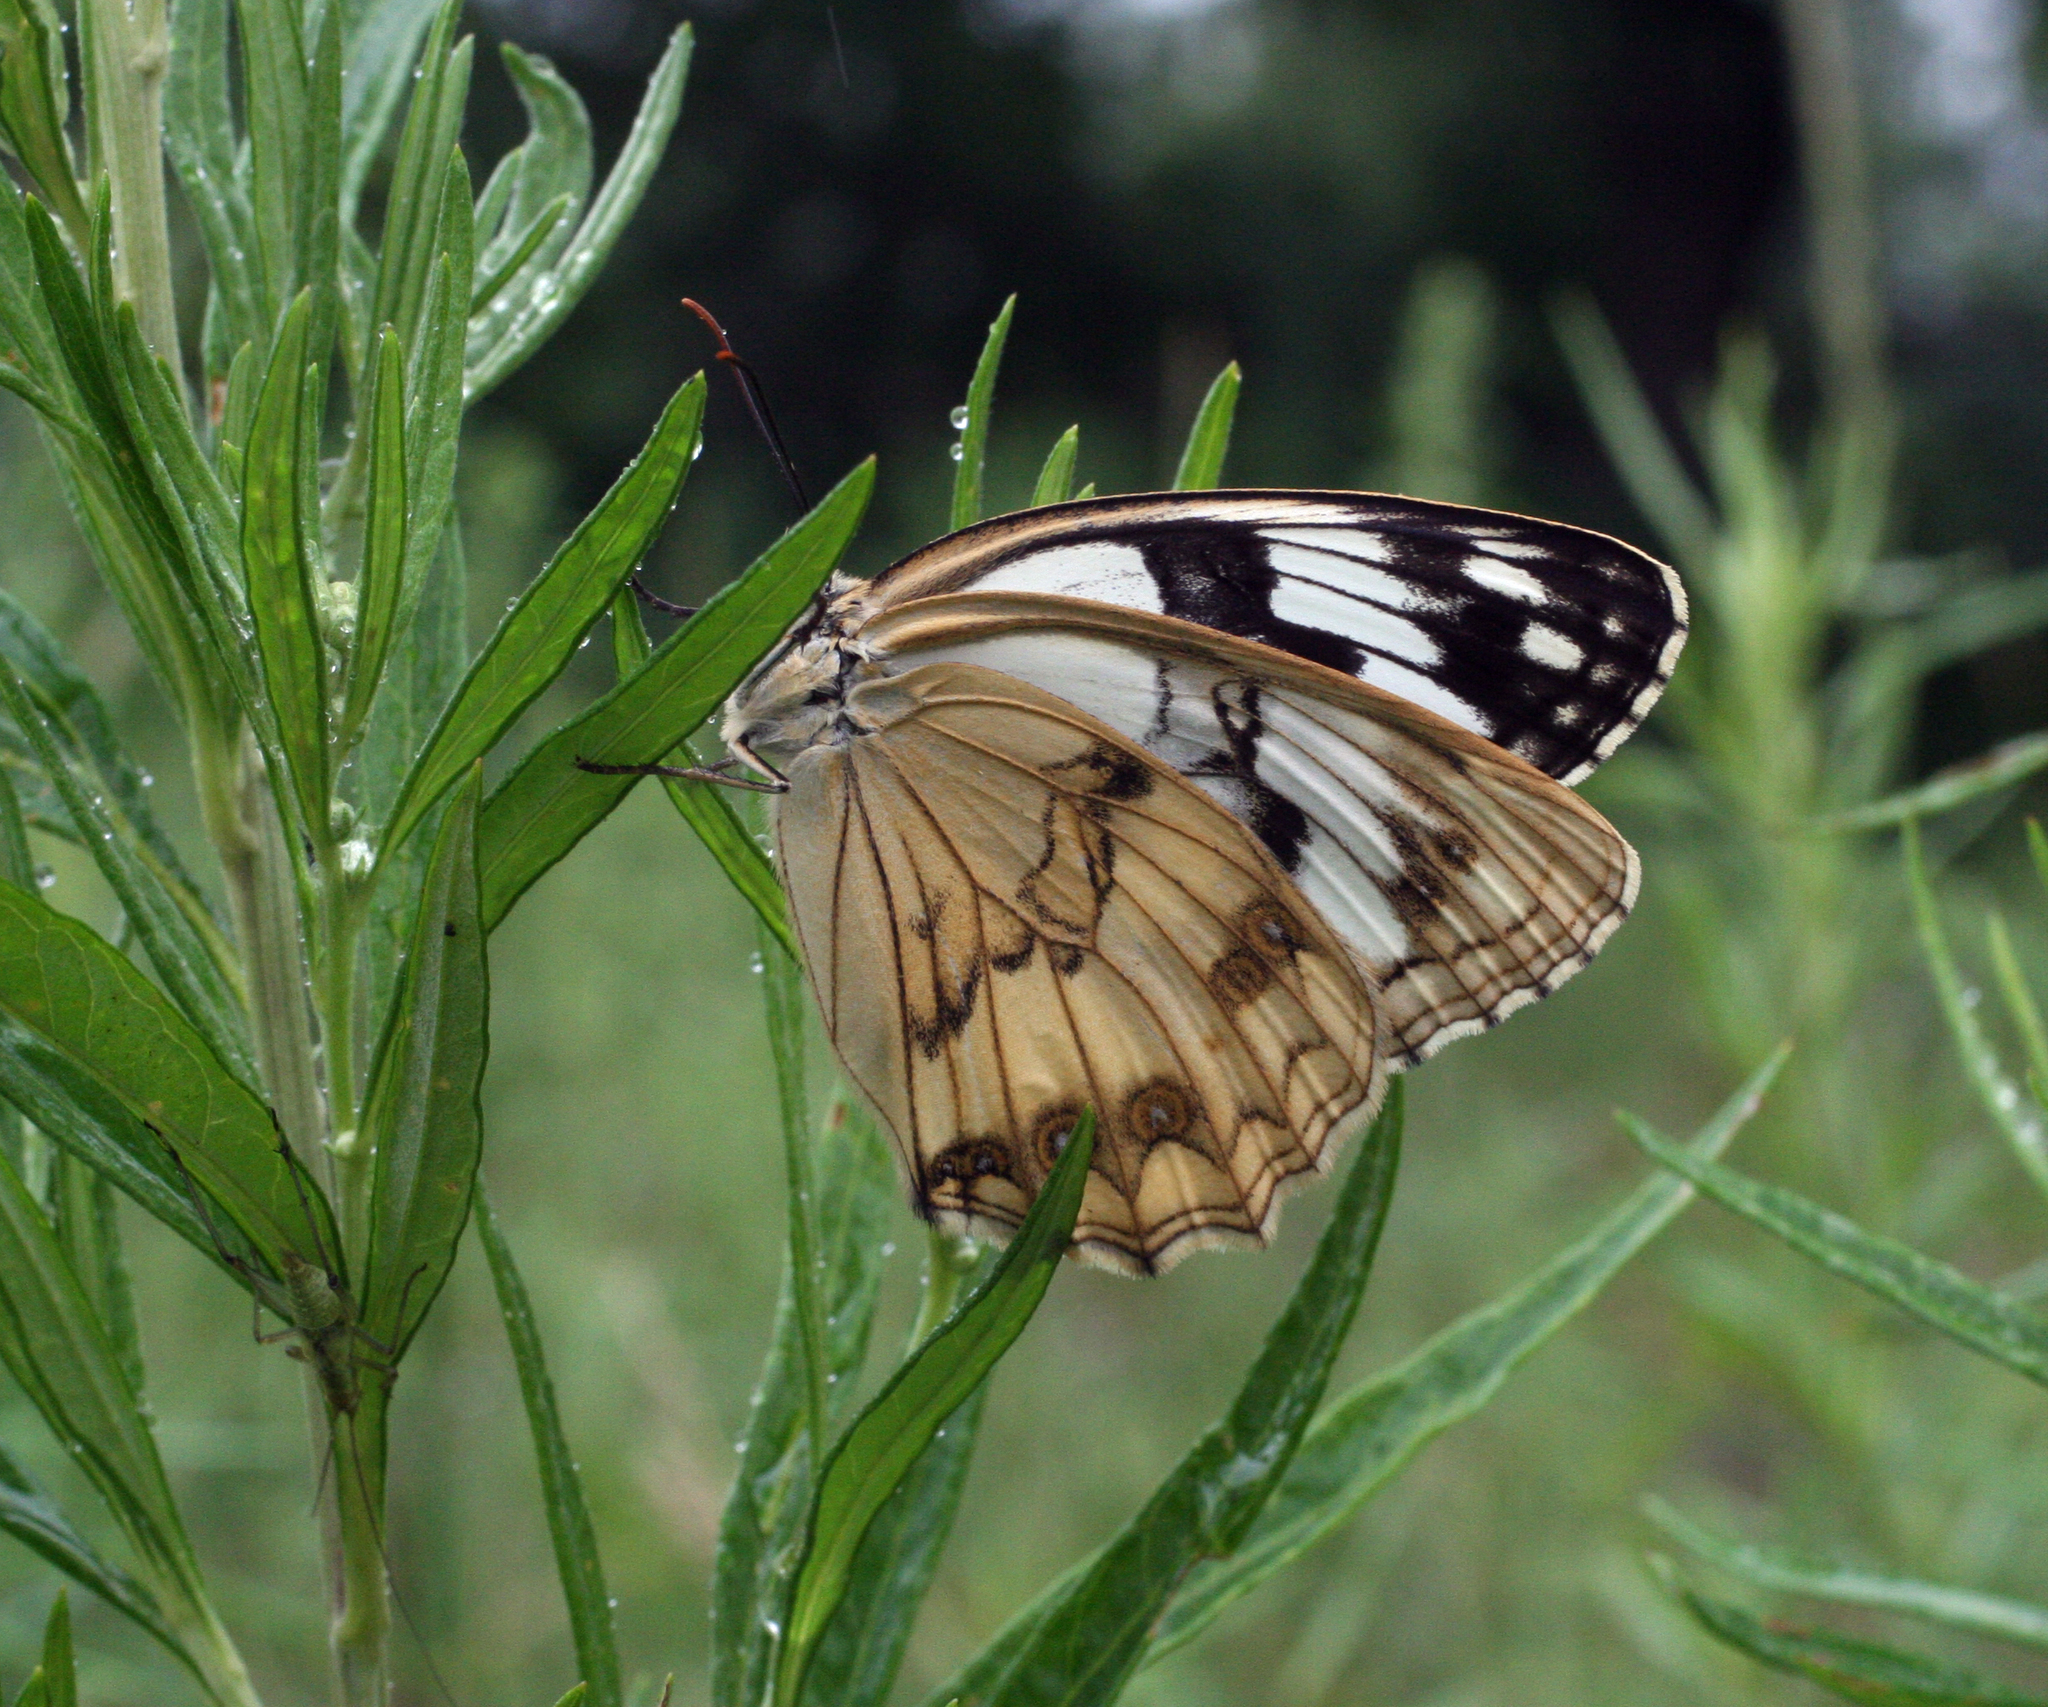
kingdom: Animalia
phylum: Arthropoda
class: Insecta
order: Lepidoptera
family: Nymphalidae
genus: Melanargia
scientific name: Melanargia halimede
